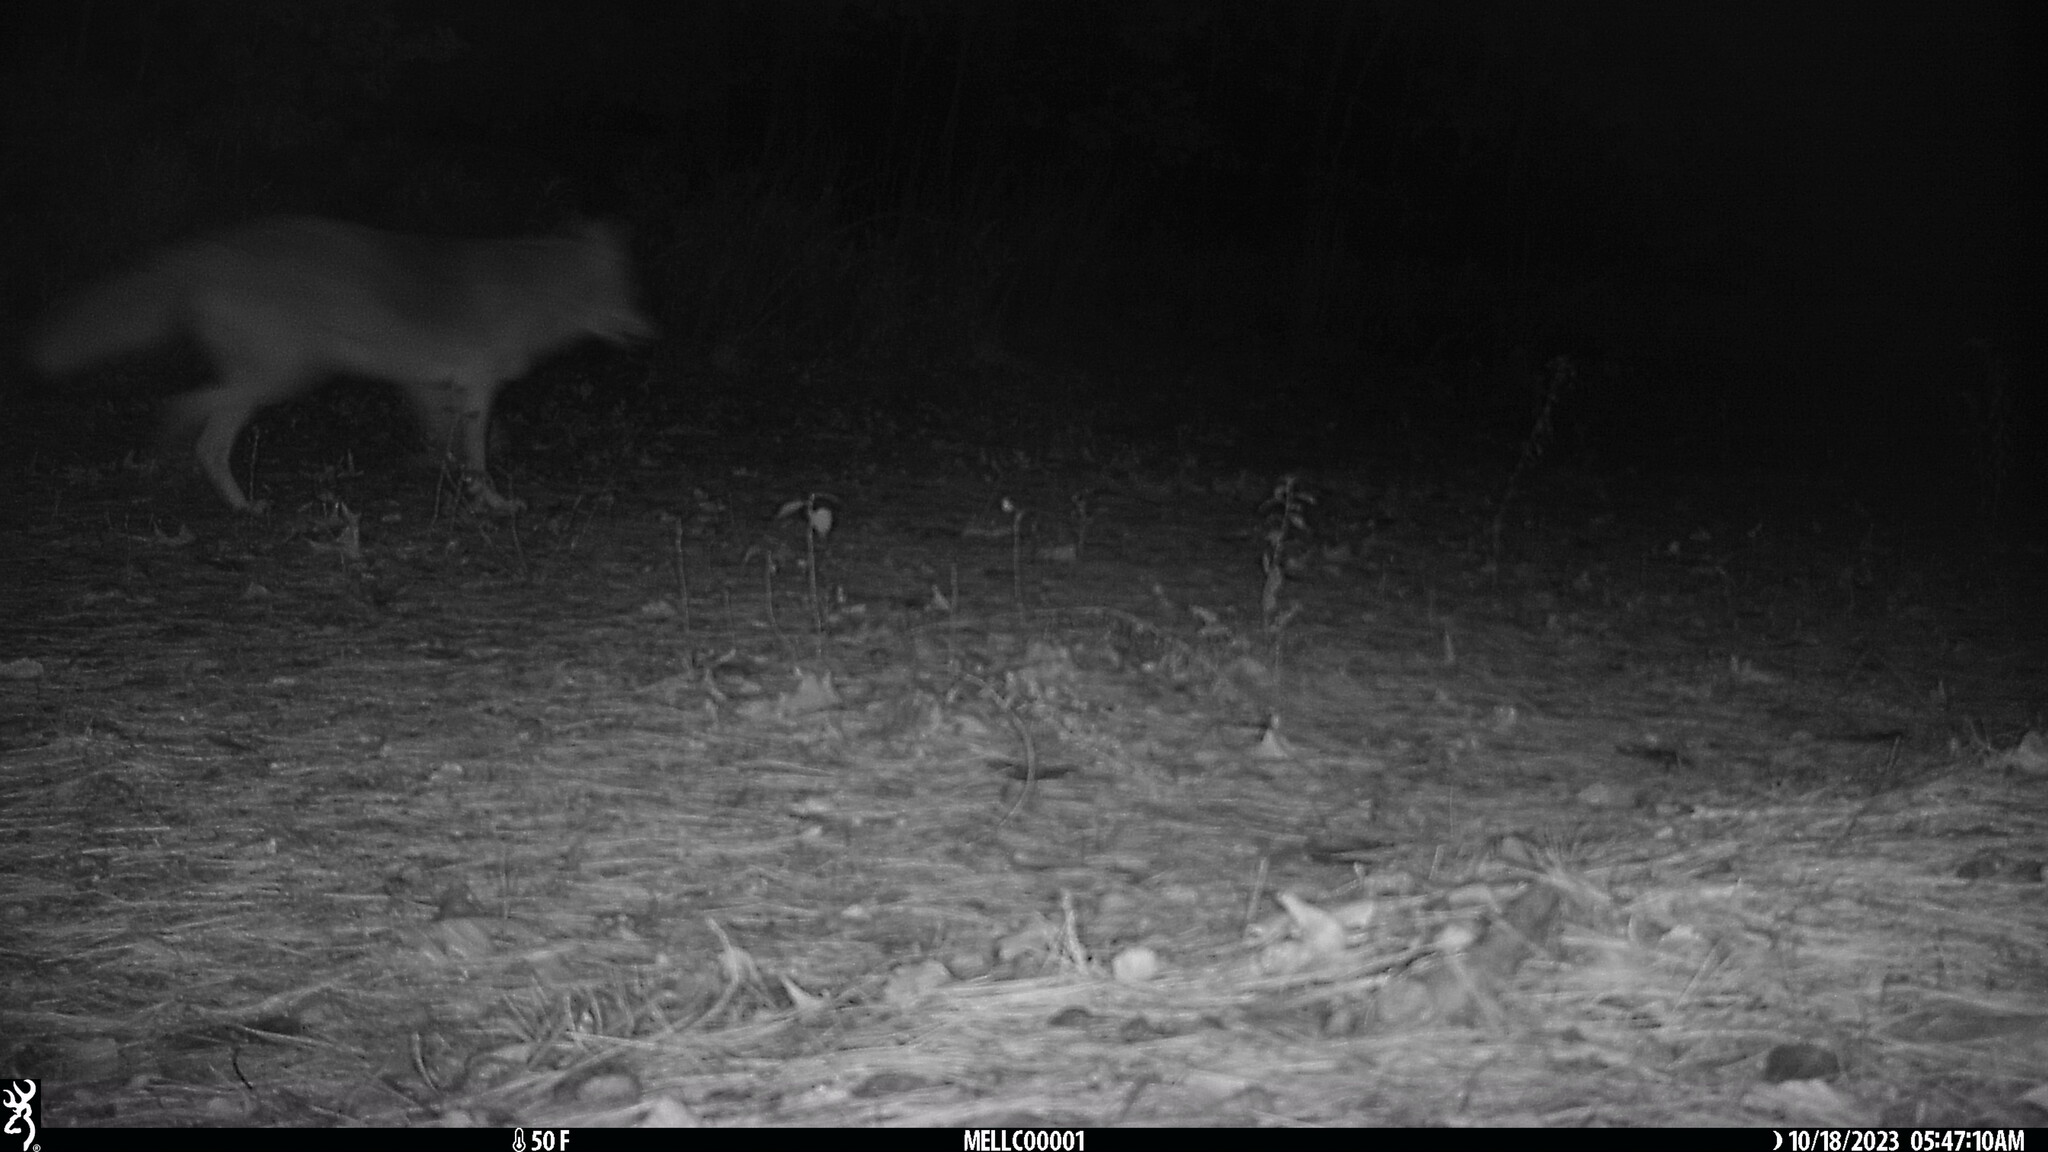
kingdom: Animalia
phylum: Chordata
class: Mammalia
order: Carnivora
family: Canidae
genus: Canis
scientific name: Canis latrans
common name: Coyote
